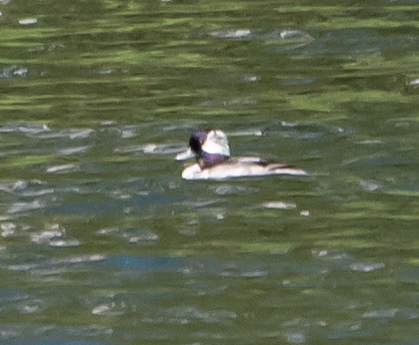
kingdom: Animalia
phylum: Chordata
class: Aves
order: Anseriformes
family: Anatidae
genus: Bucephala
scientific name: Bucephala albeola
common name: Bufflehead
